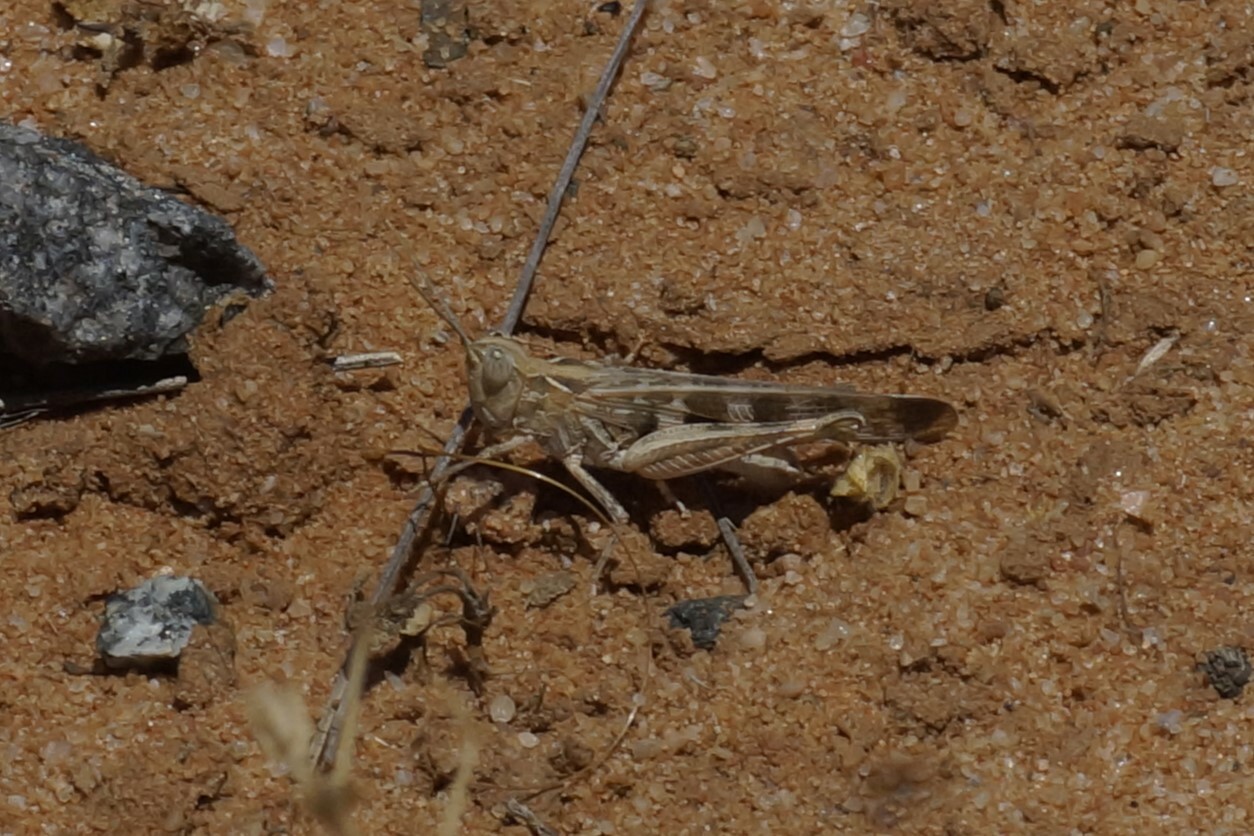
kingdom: Animalia
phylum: Arthropoda
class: Insecta
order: Orthoptera
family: Acrididae
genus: Chortoicetes
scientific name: Chortoicetes terminifera
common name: Australian plague locust
